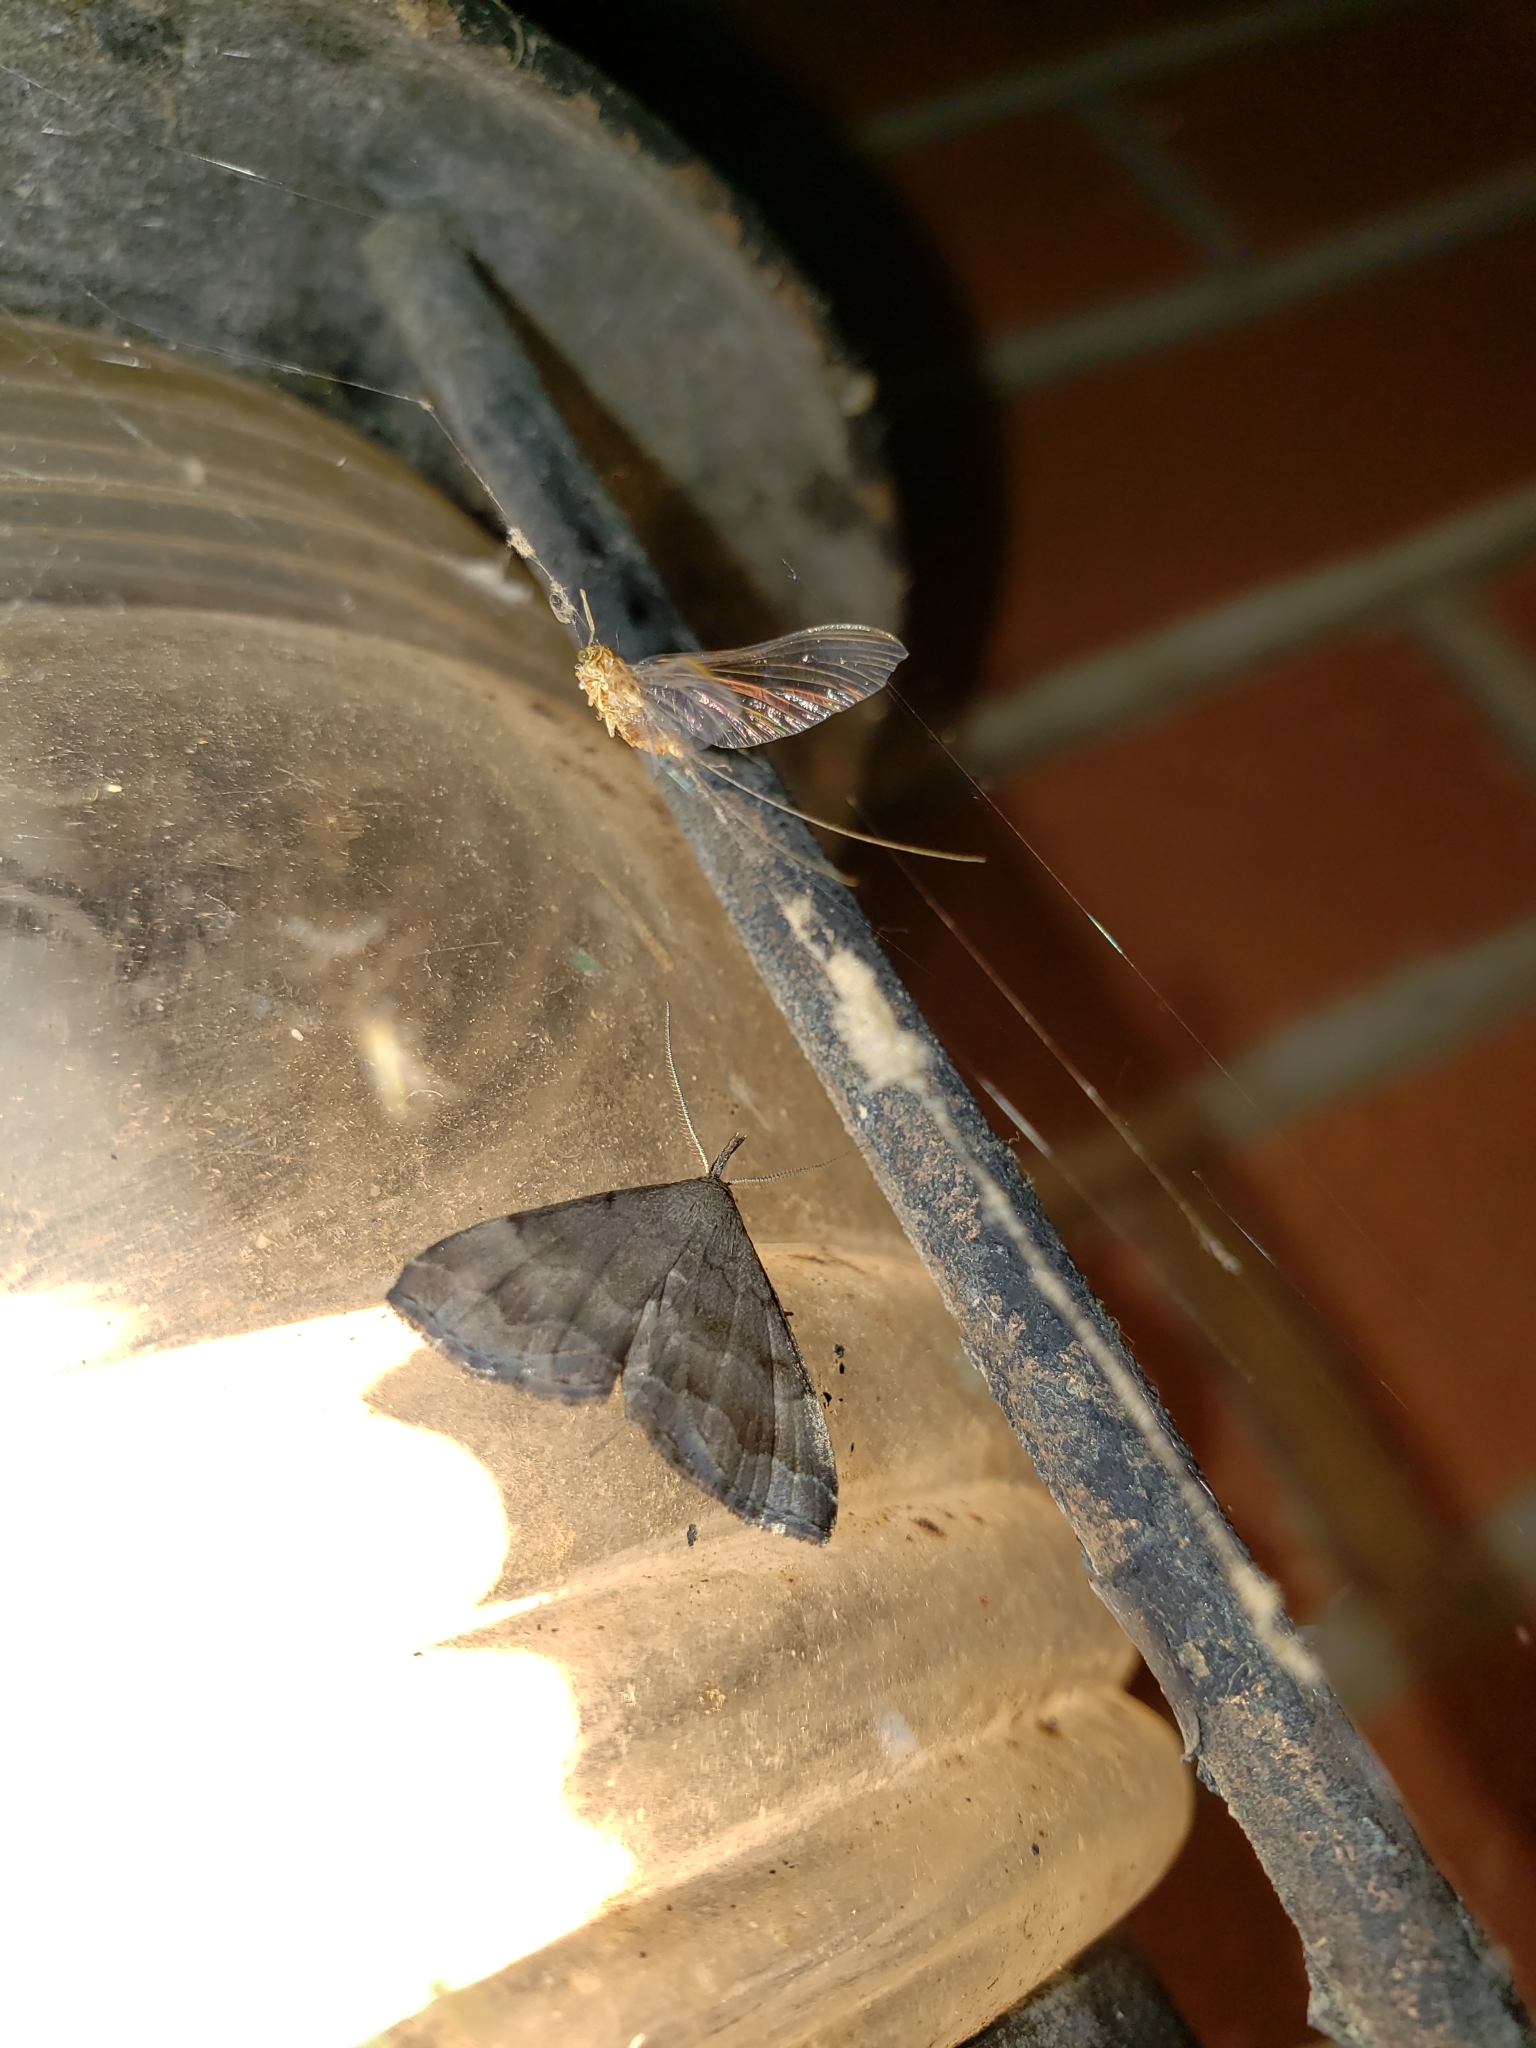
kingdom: Animalia
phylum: Arthropoda
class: Insecta
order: Lepidoptera
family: Erebidae
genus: Phalaenostola
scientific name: Phalaenostola larentioides
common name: Black-banded owlet
